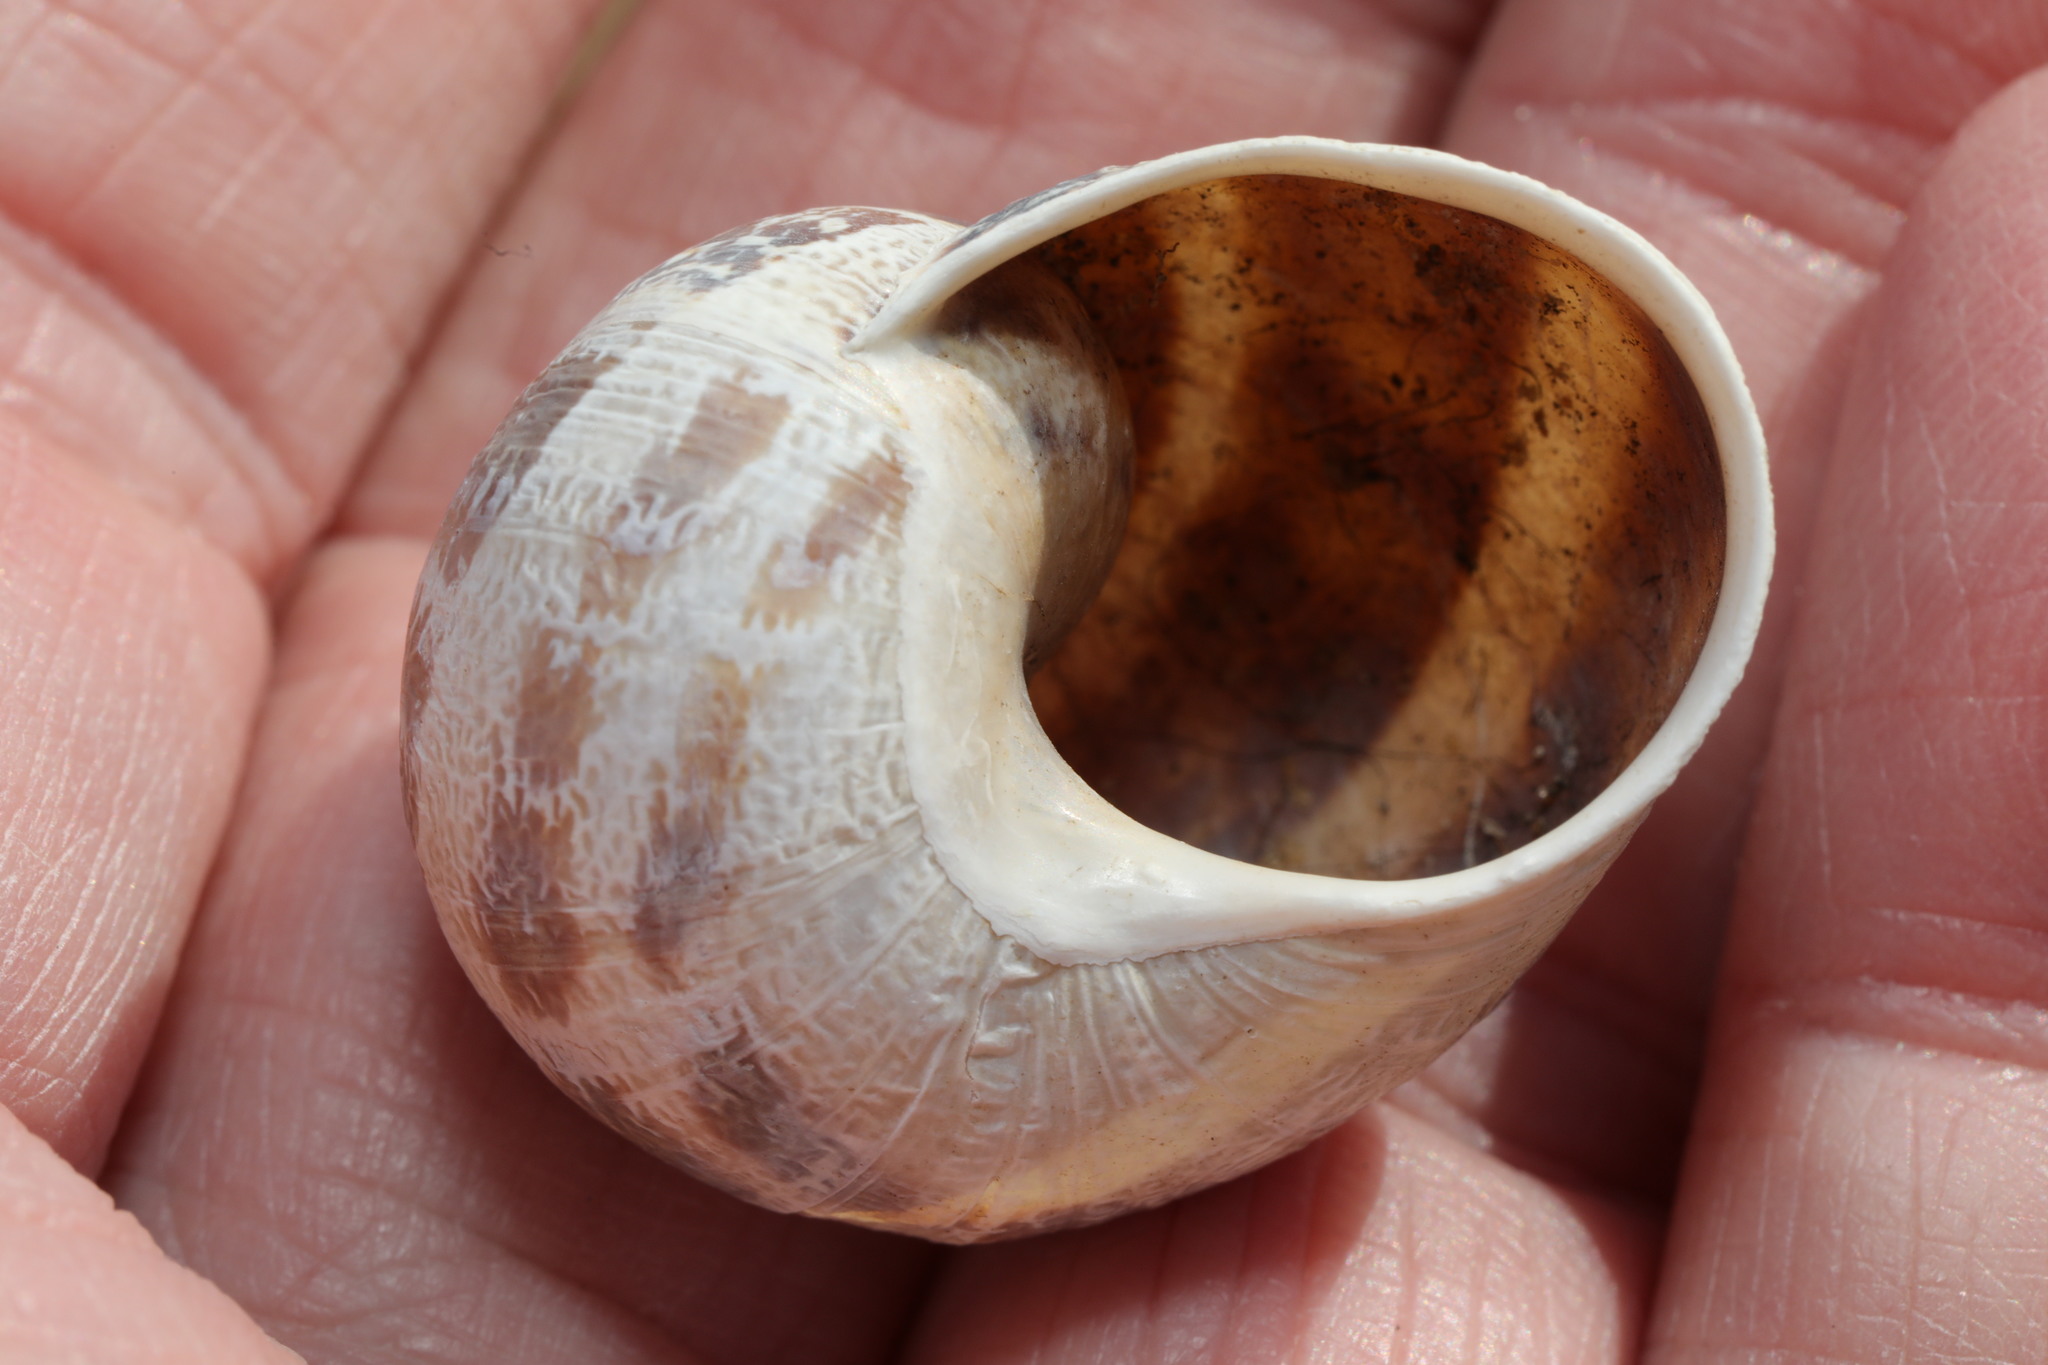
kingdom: Animalia
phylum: Mollusca
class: Gastropoda
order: Stylommatophora
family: Helicidae
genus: Cornu
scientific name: Cornu aspersum
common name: Brown garden snail
